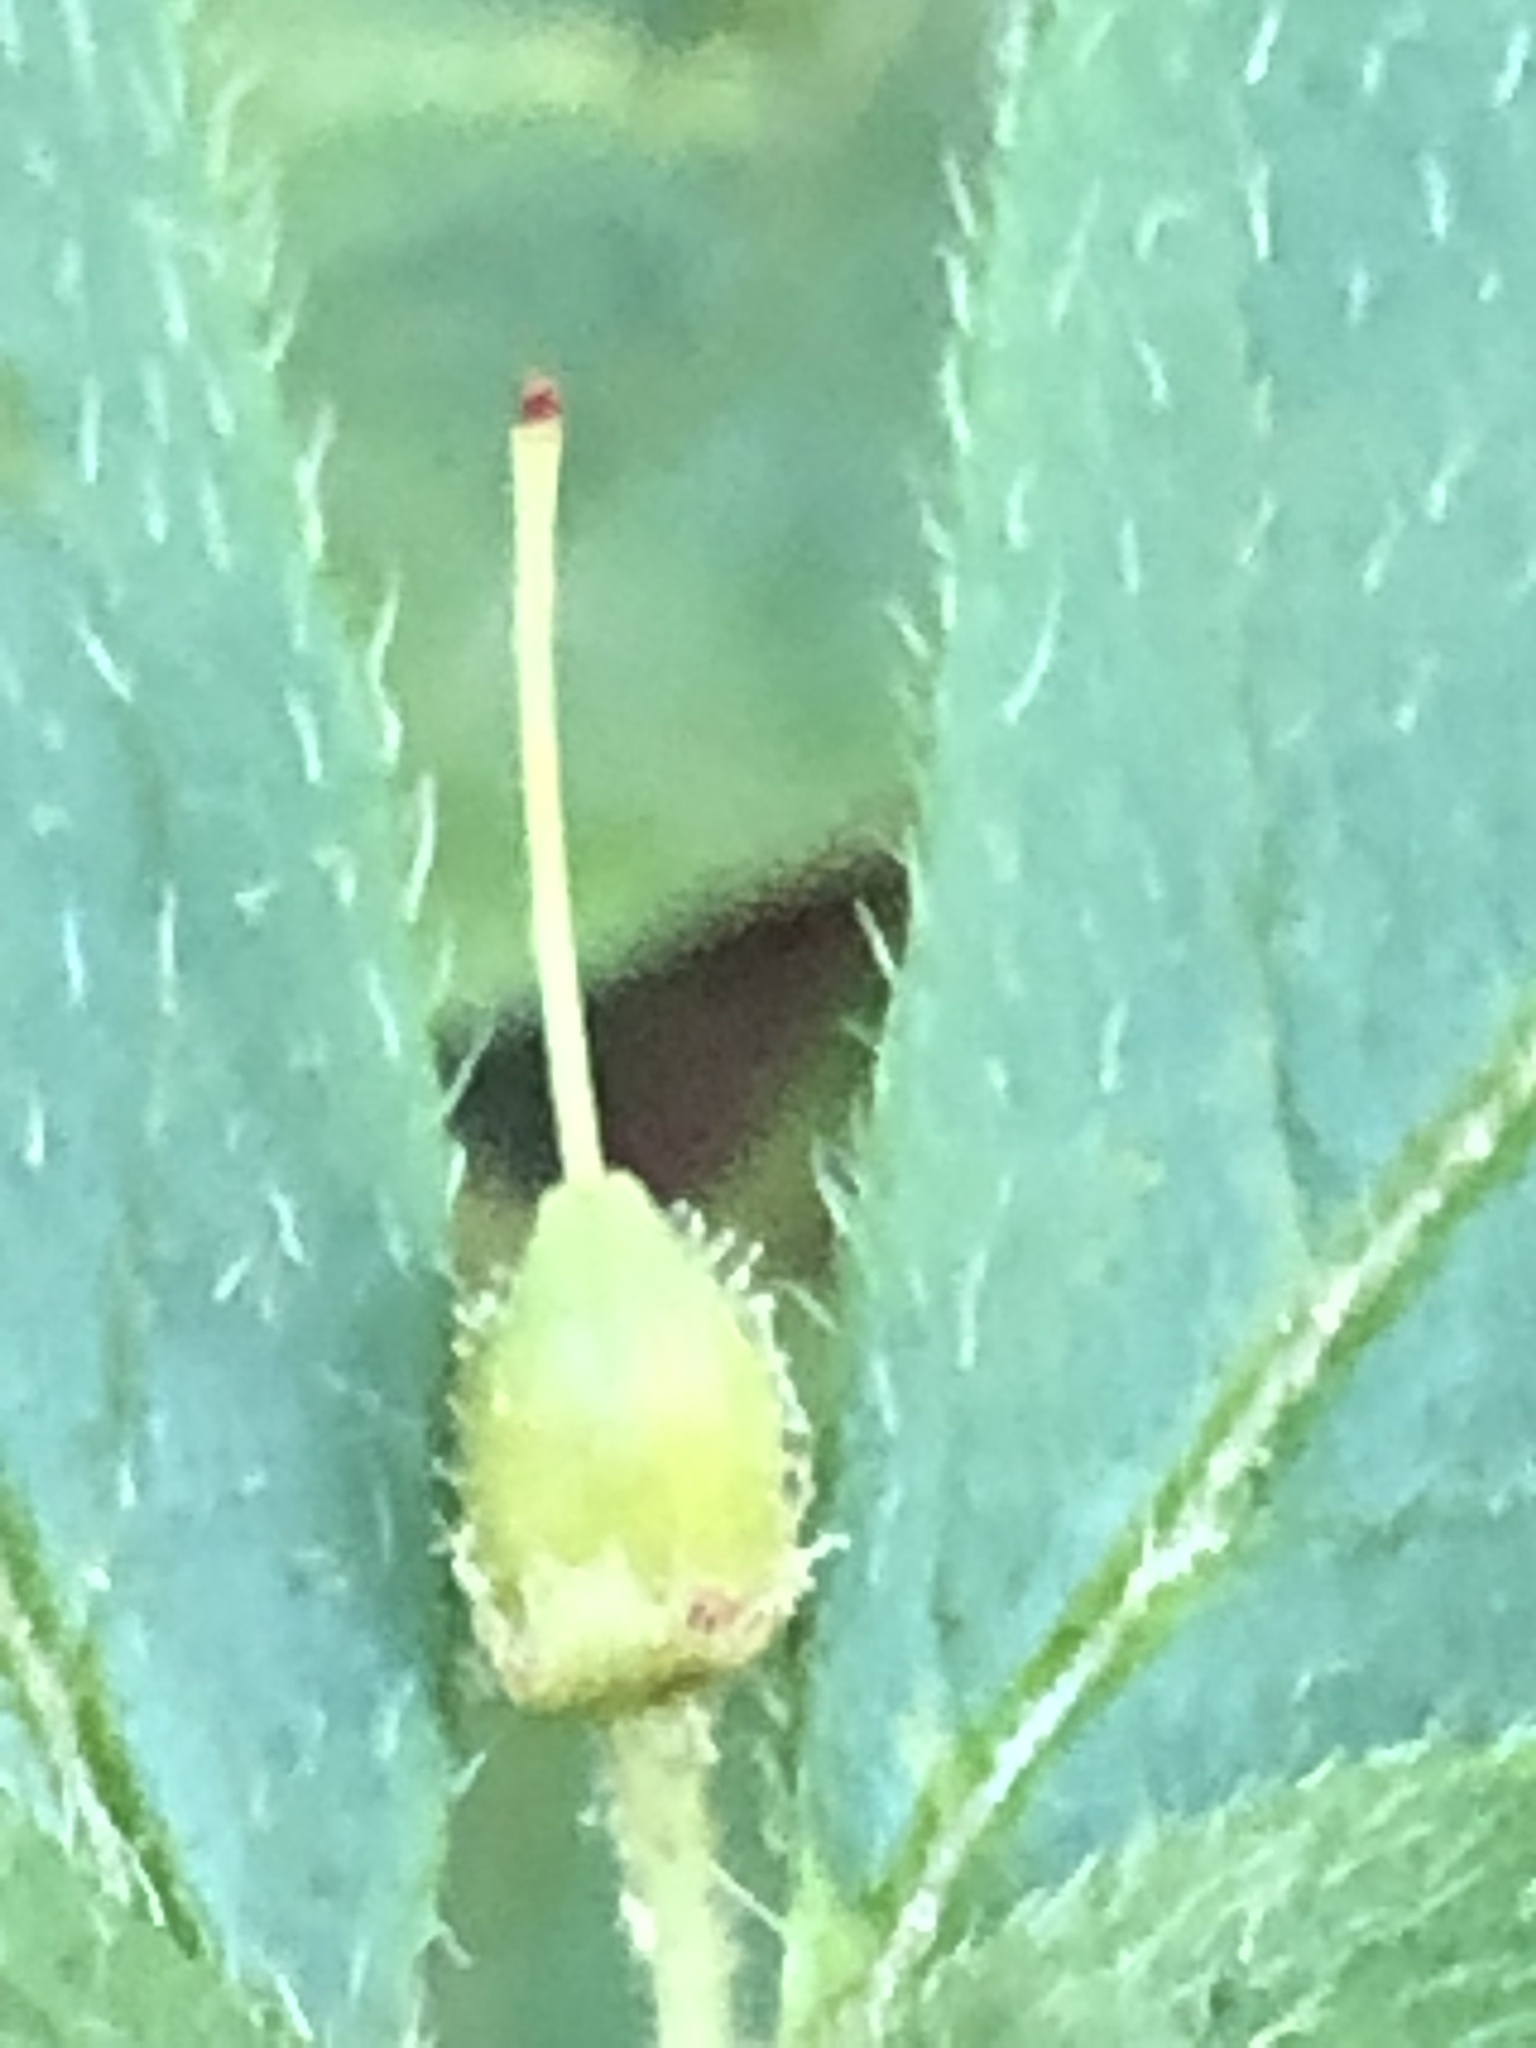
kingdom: Plantae
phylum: Tracheophyta
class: Magnoliopsida
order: Ericales
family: Ericaceae
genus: Rhododendron
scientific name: Rhododendron pilosum
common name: Hairy minniebush
